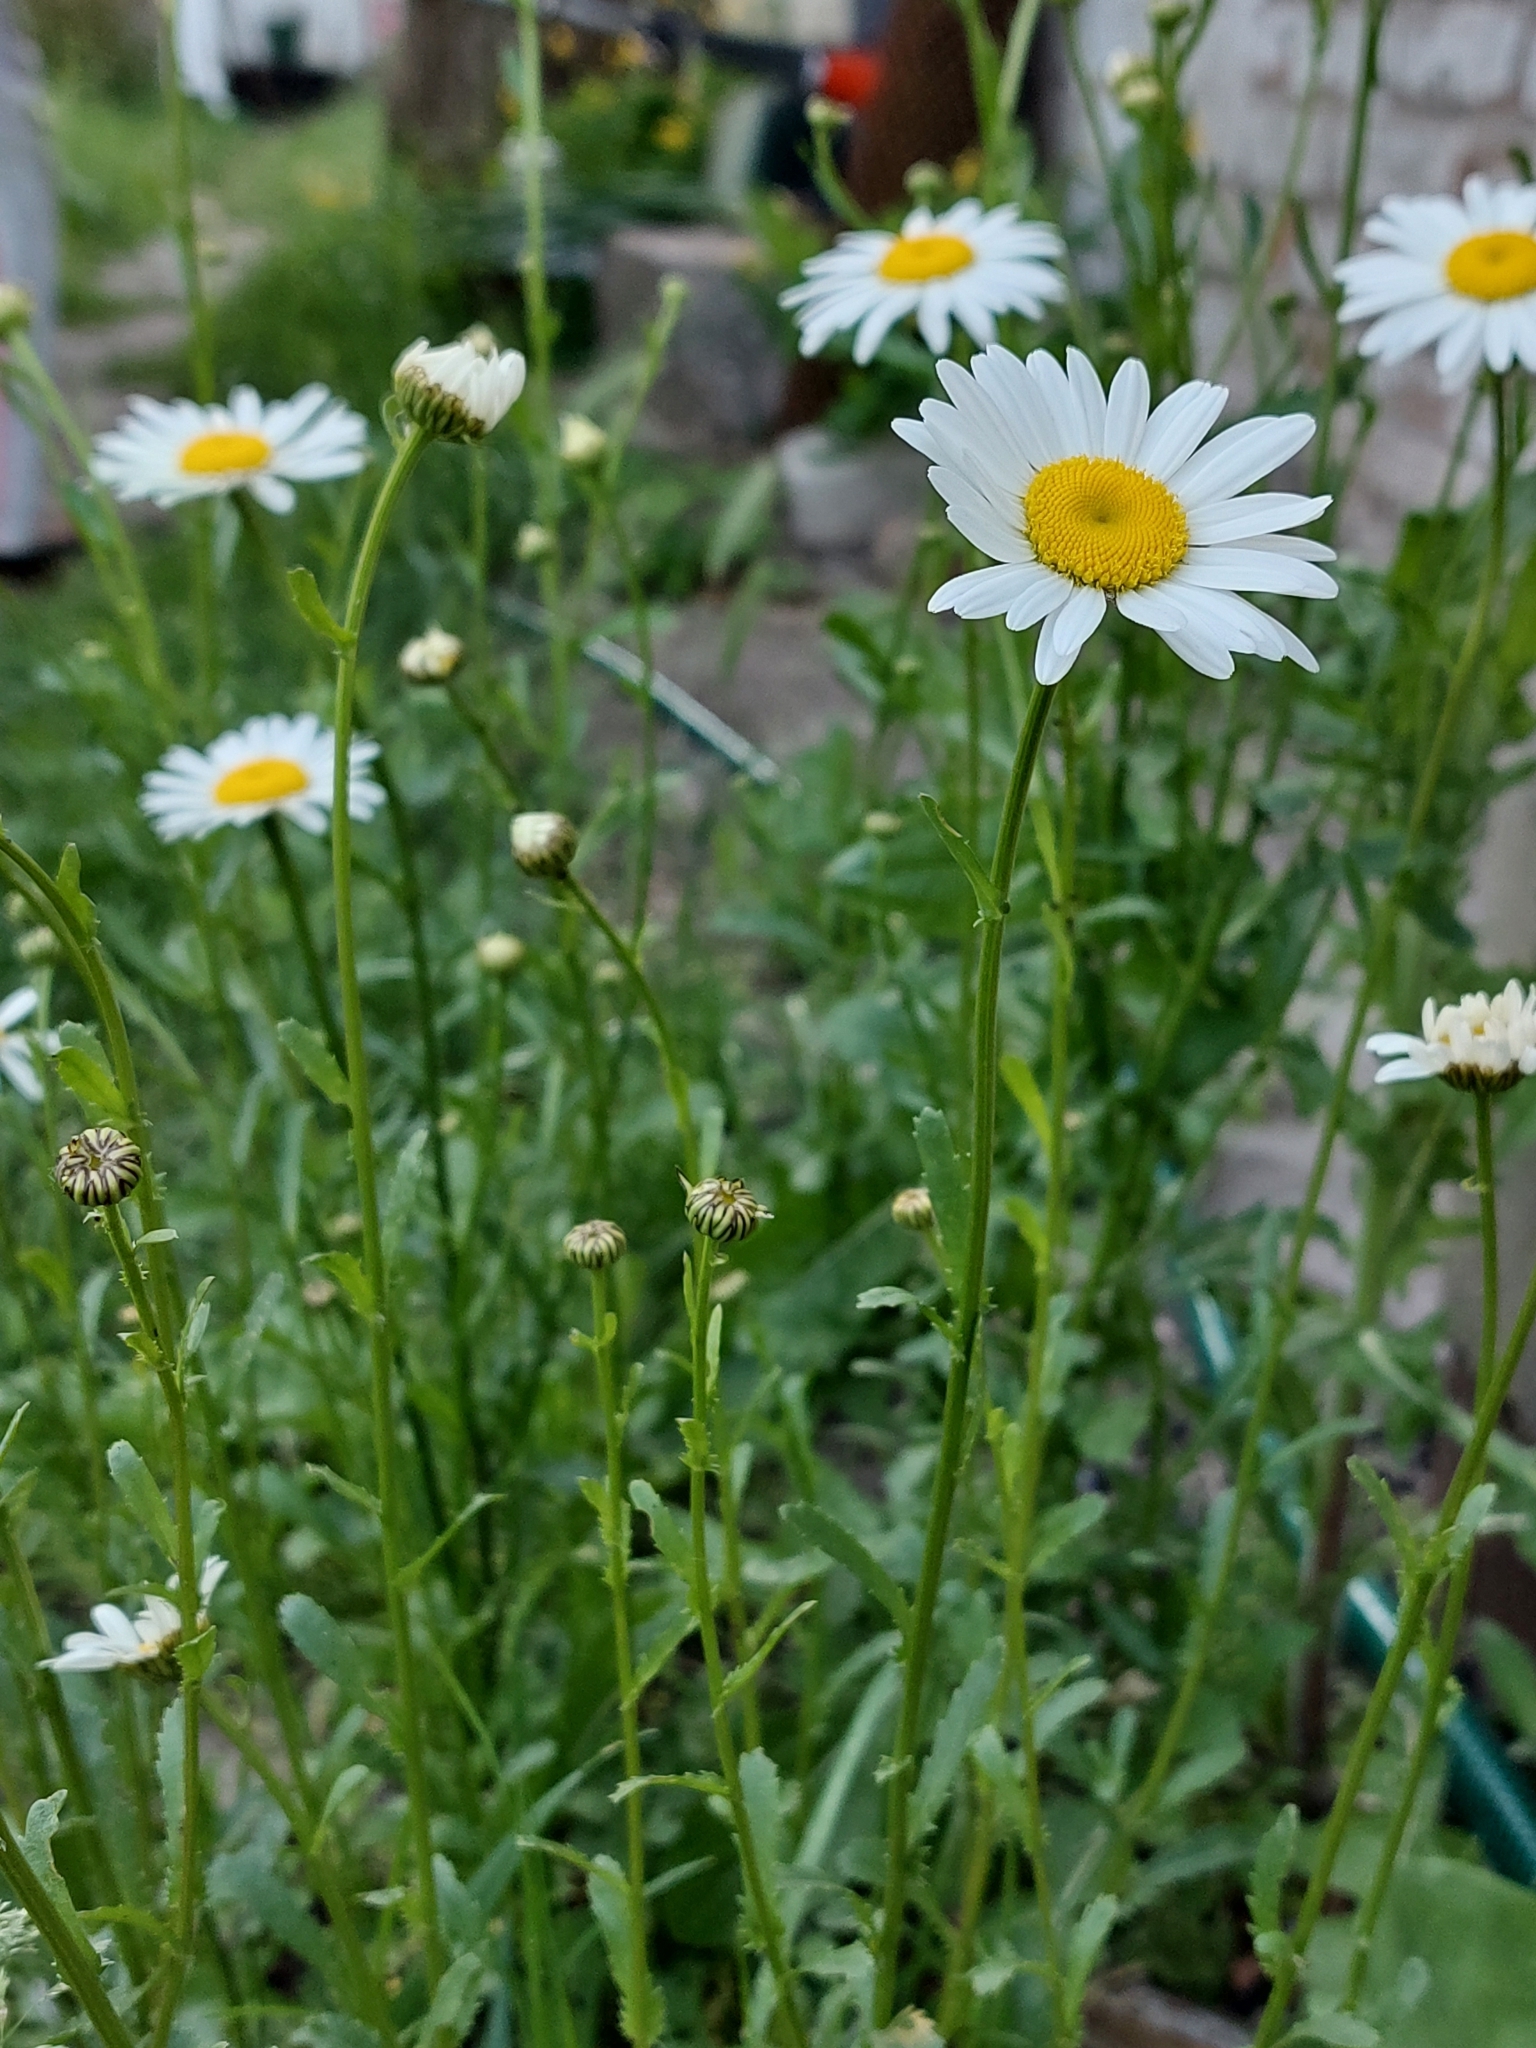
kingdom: Plantae
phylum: Tracheophyta
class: Magnoliopsida
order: Asterales
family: Asteraceae
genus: Leucanthemum
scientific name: Leucanthemum vulgare
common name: Oxeye daisy
